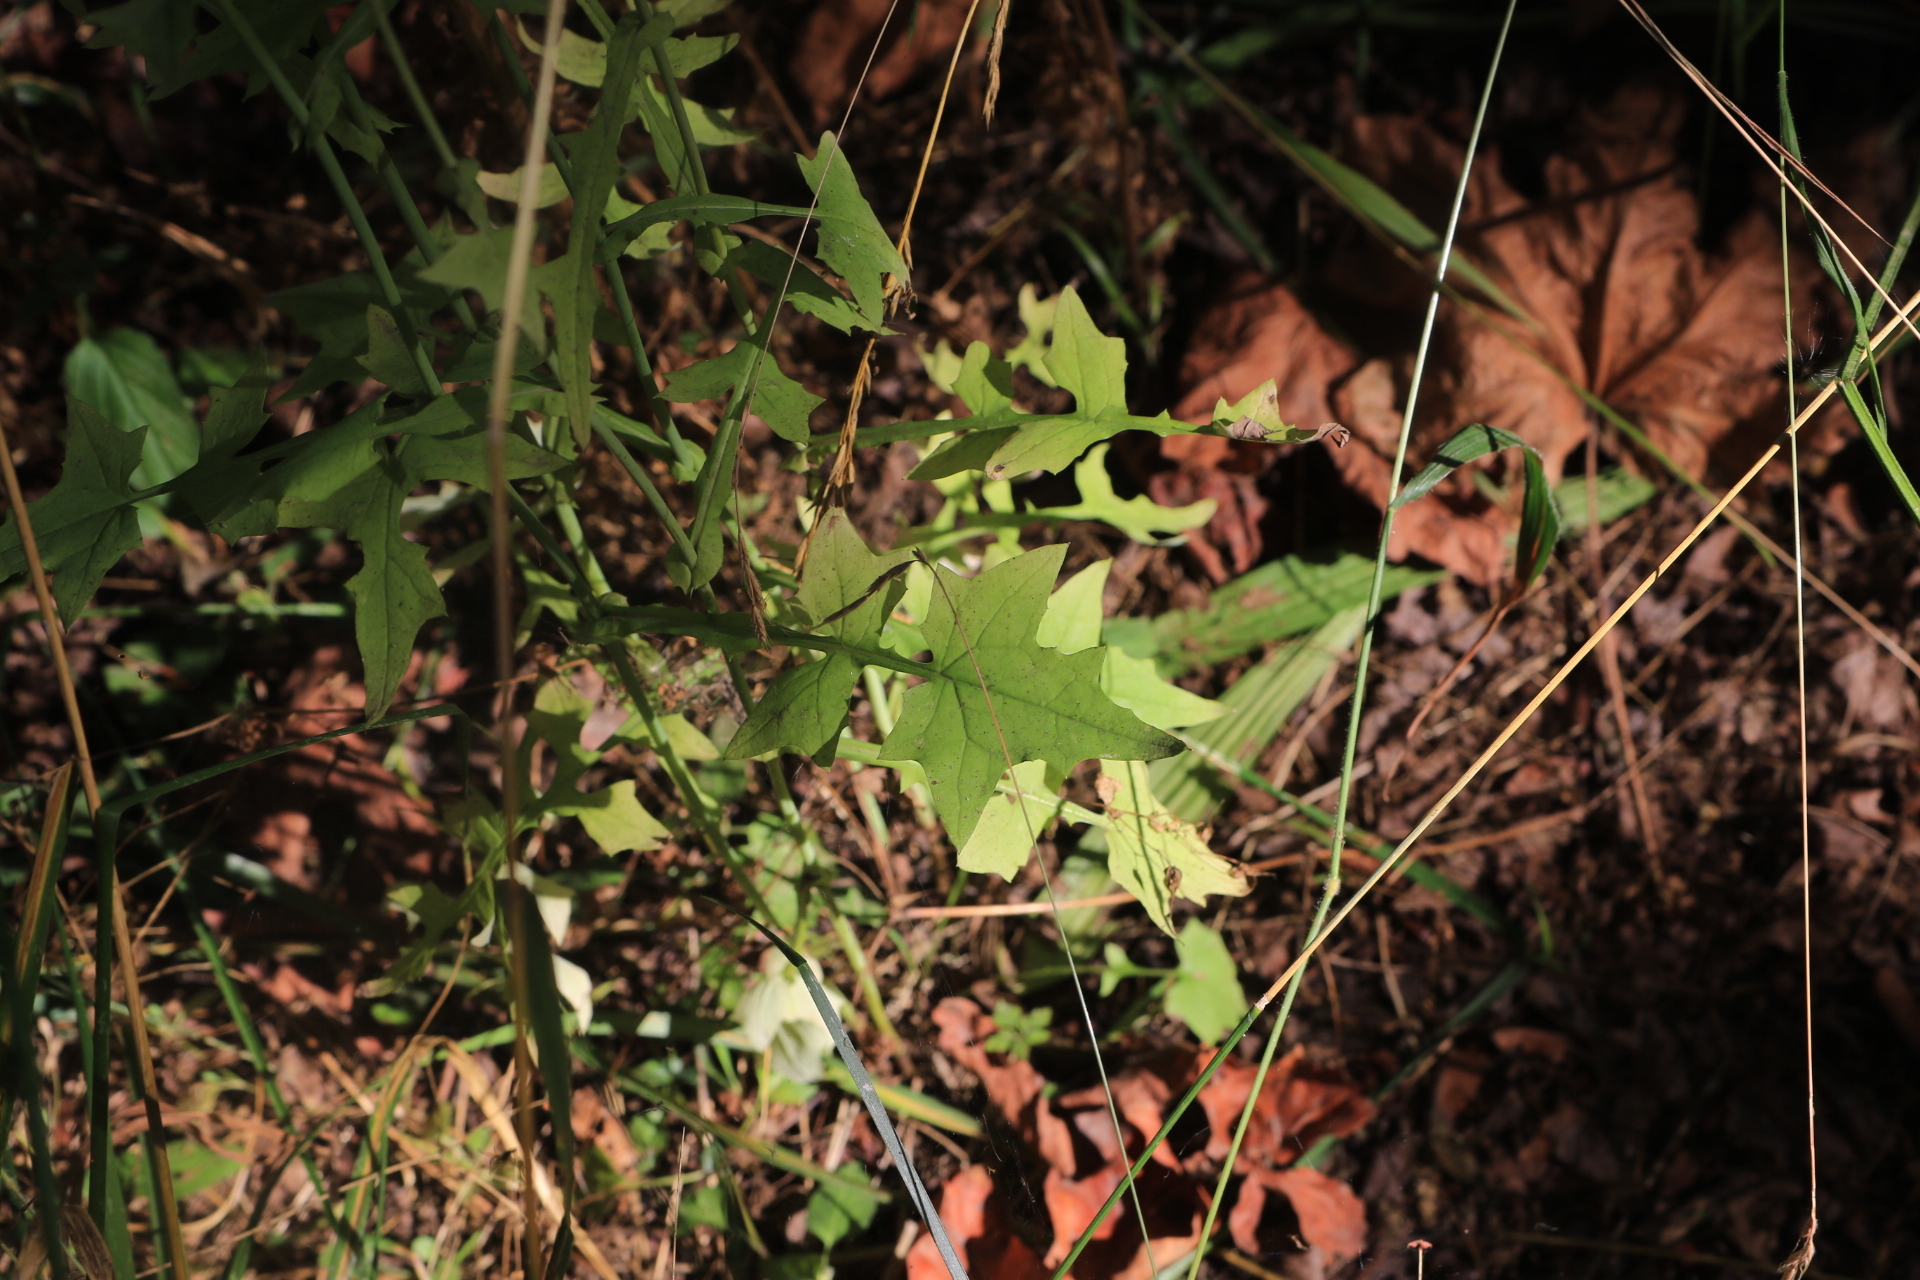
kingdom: Plantae
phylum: Tracheophyta
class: Magnoliopsida
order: Asterales
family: Asteraceae
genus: Mycelis
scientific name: Mycelis muralis
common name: Wall lettuce
